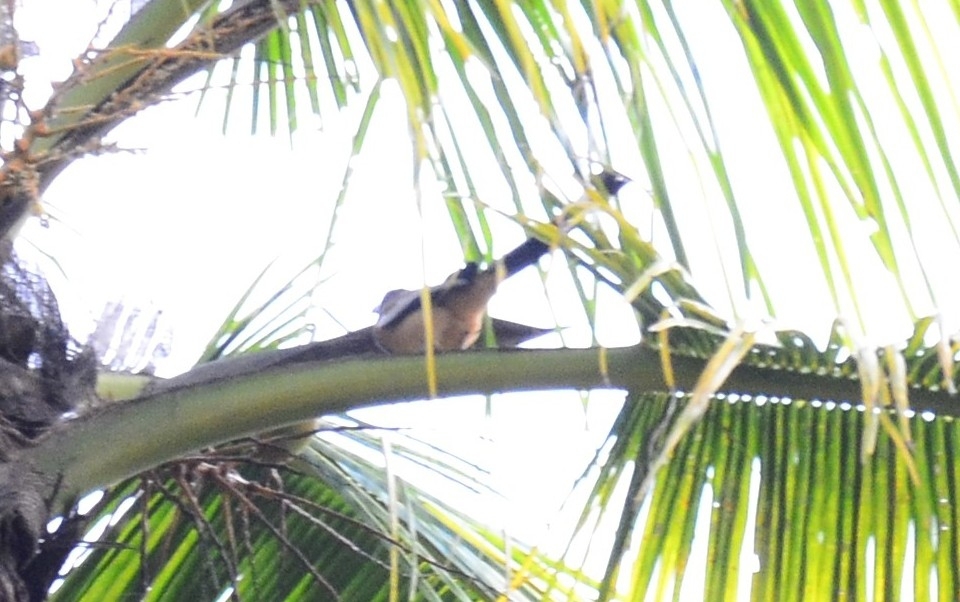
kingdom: Animalia
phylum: Chordata
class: Aves
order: Passeriformes
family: Corvidae
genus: Dendrocitta
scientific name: Dendrocitta vagabunda
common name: Rufous treepie
